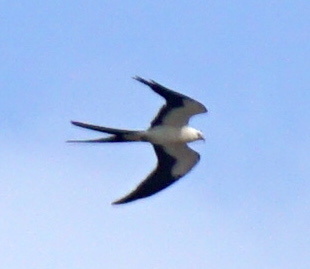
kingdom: Animalia
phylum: Chordata
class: Aves
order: Accipitriformes
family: Accipitridae
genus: Elanoides
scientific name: Elanoides forficatus
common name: Swallow-tailed kite
